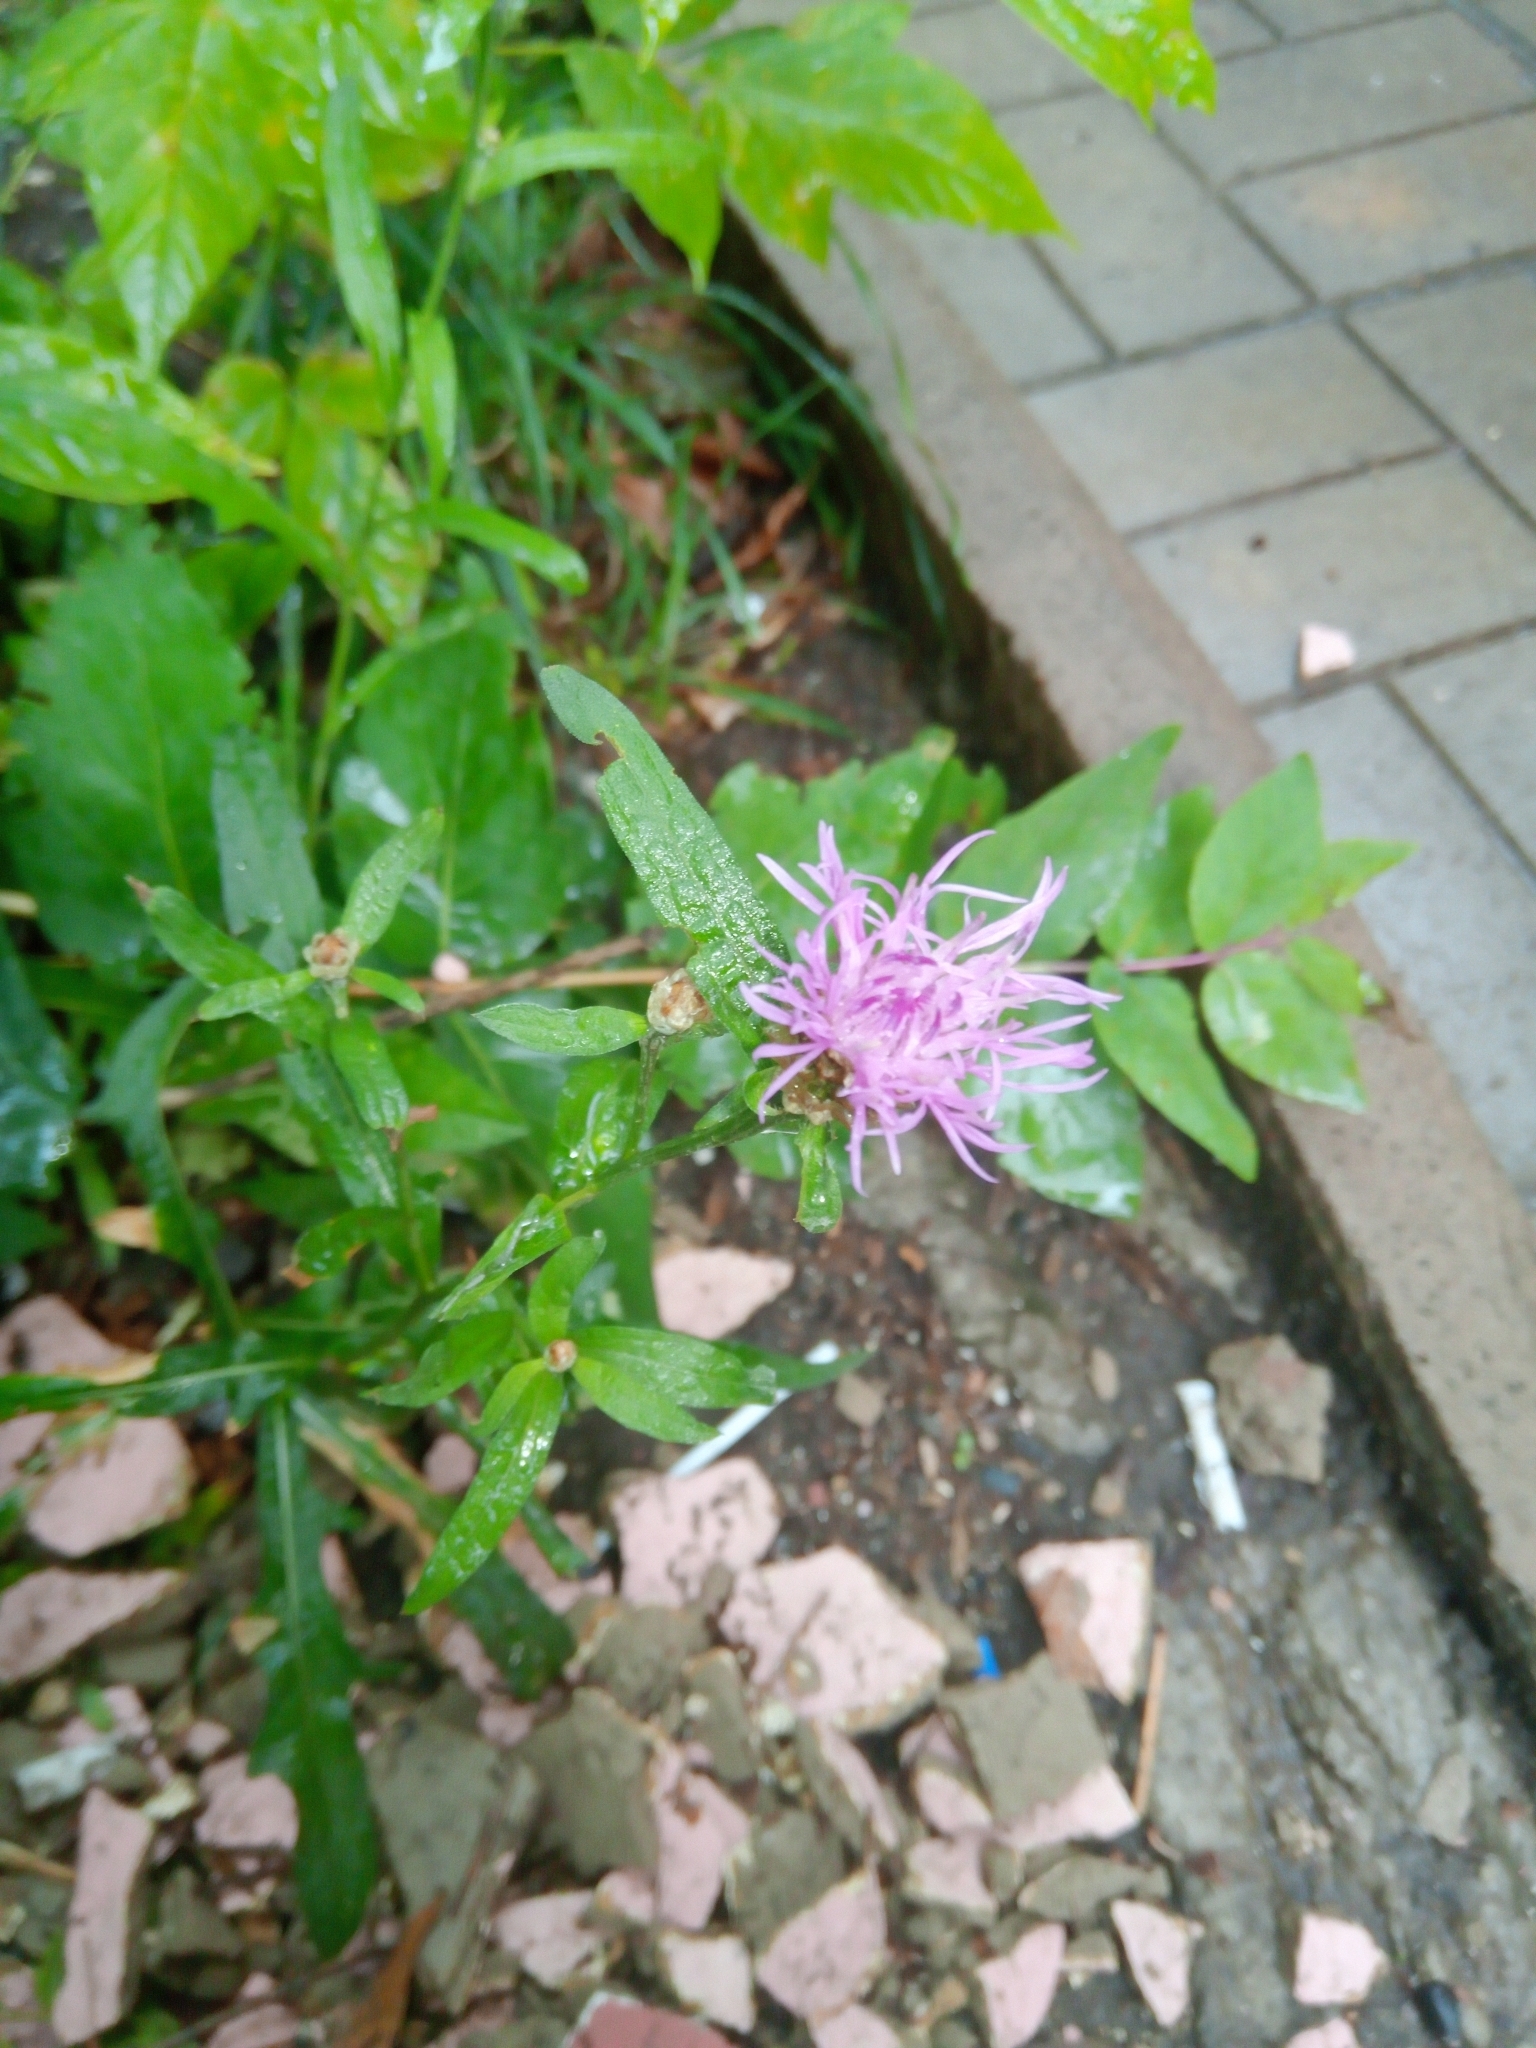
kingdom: Plantae
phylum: Tracheophyta
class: Magnoliopsida
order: Asterales
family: Asteraceae
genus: Centaurea
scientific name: Centaurea jacea
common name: Brown knapweed
